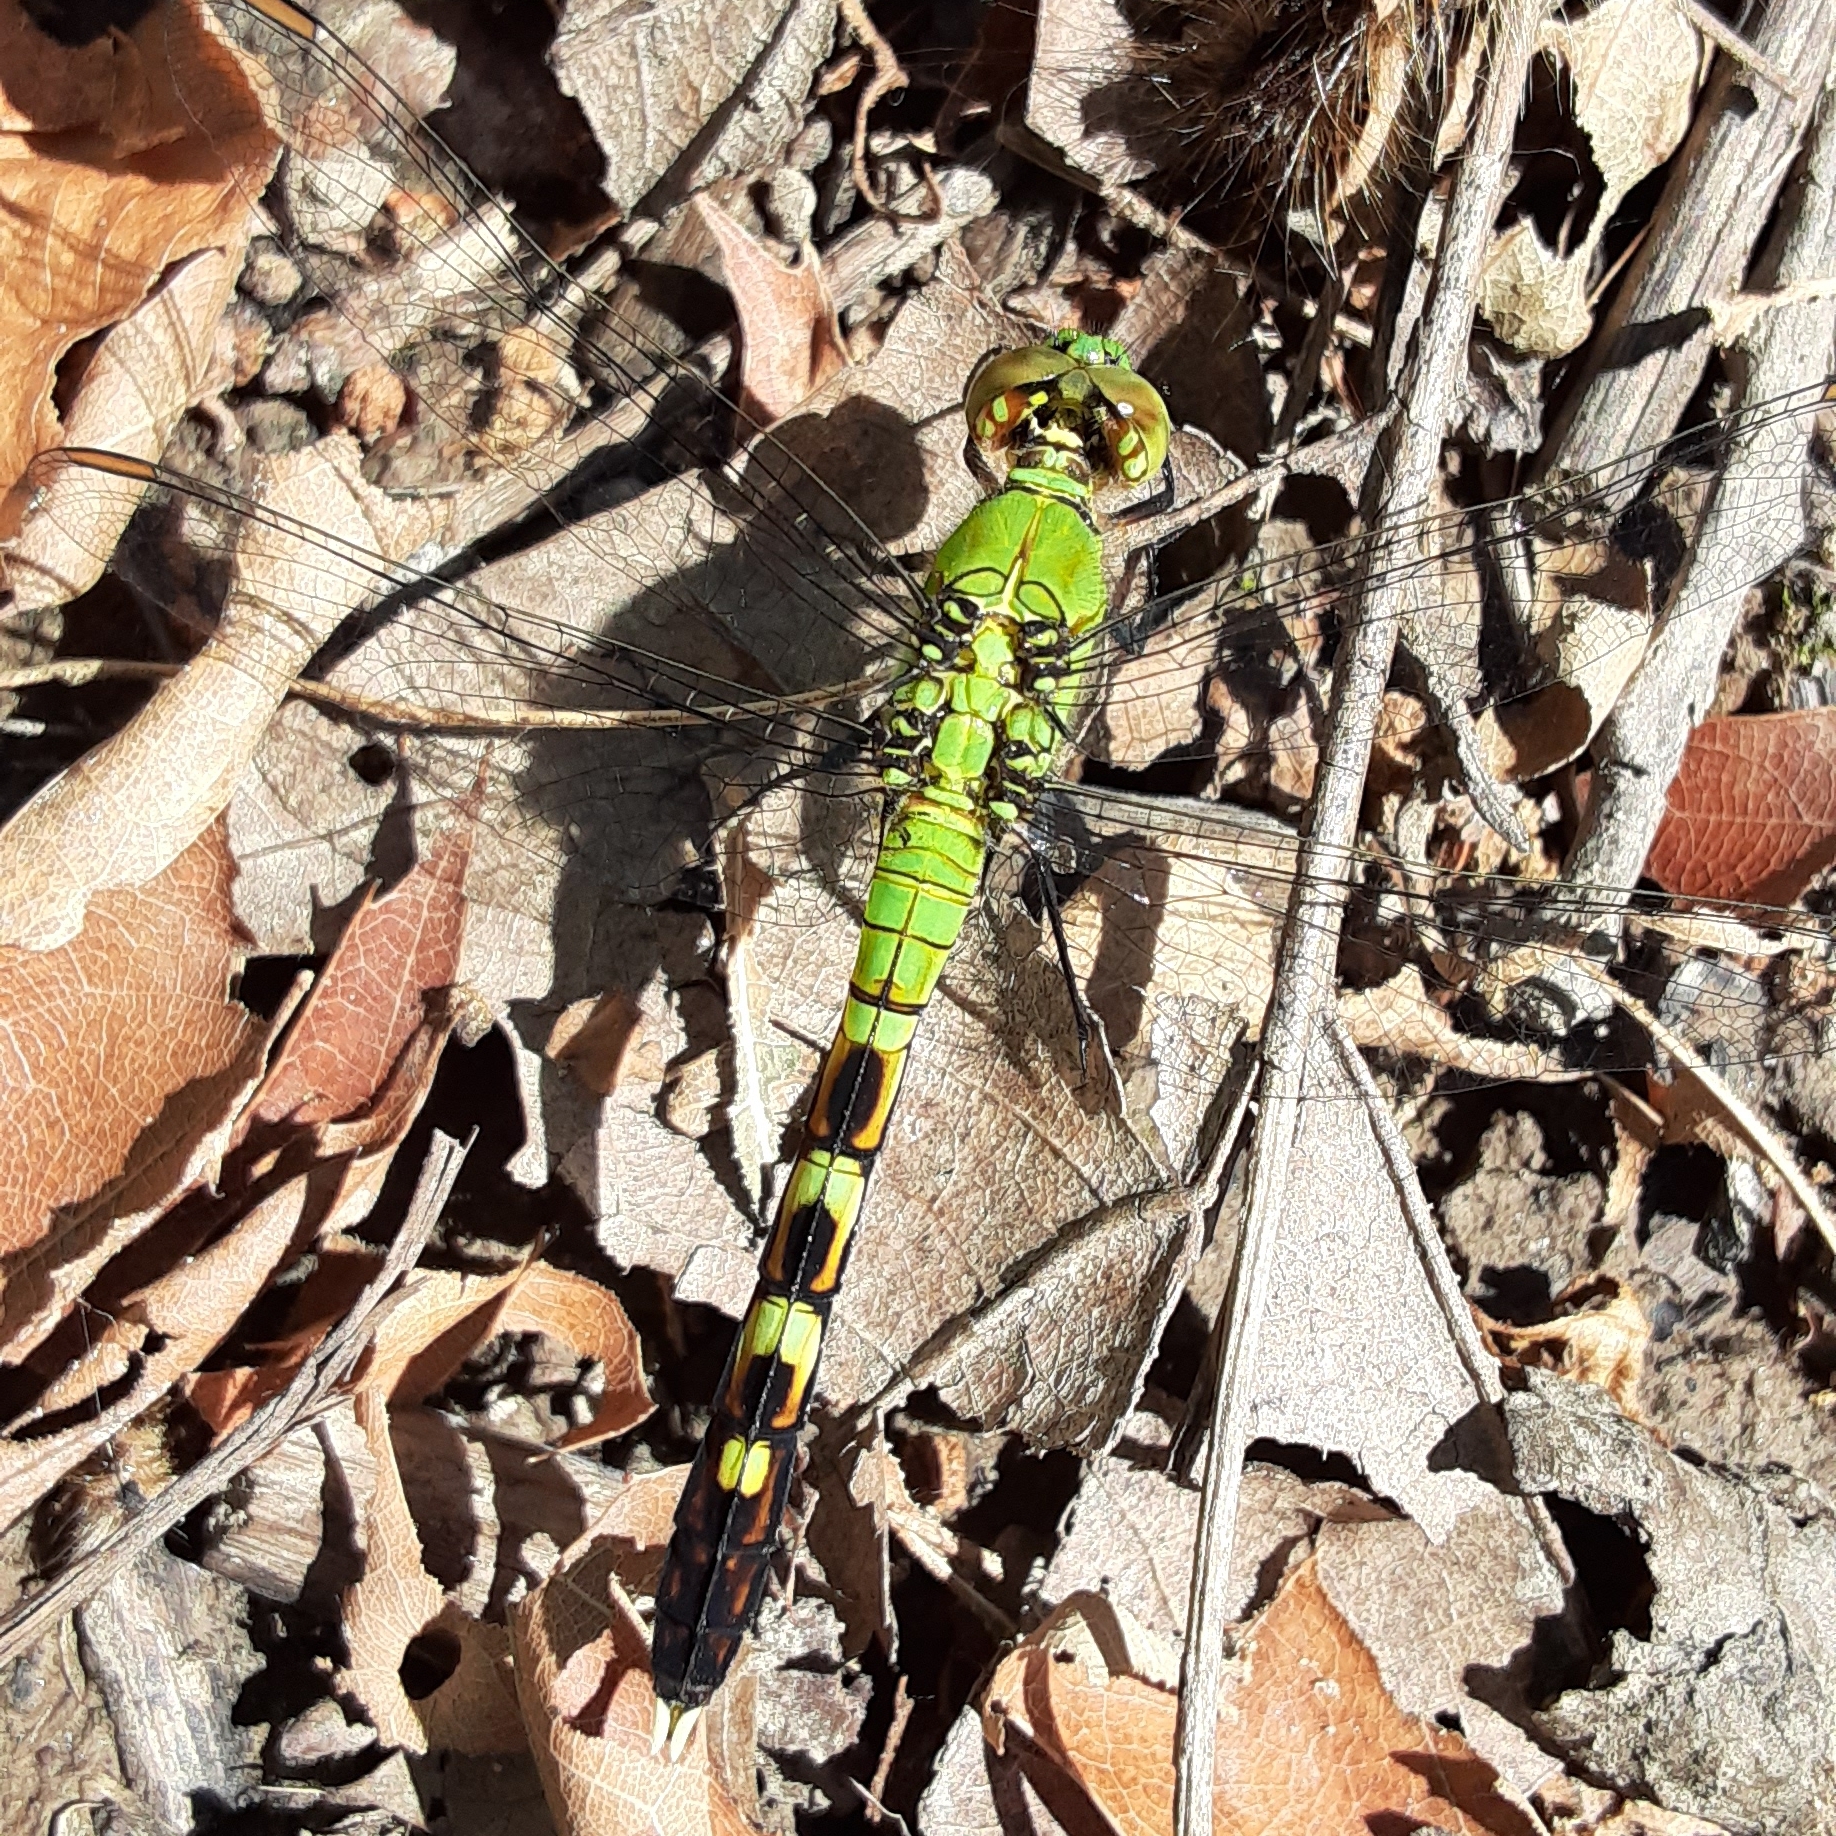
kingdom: Animalia
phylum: Arthropoda
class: Insecta
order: Odonata
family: Libellulidae
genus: Erythemis
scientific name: Erythemis simplicicollis
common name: Eastern pondhawk
